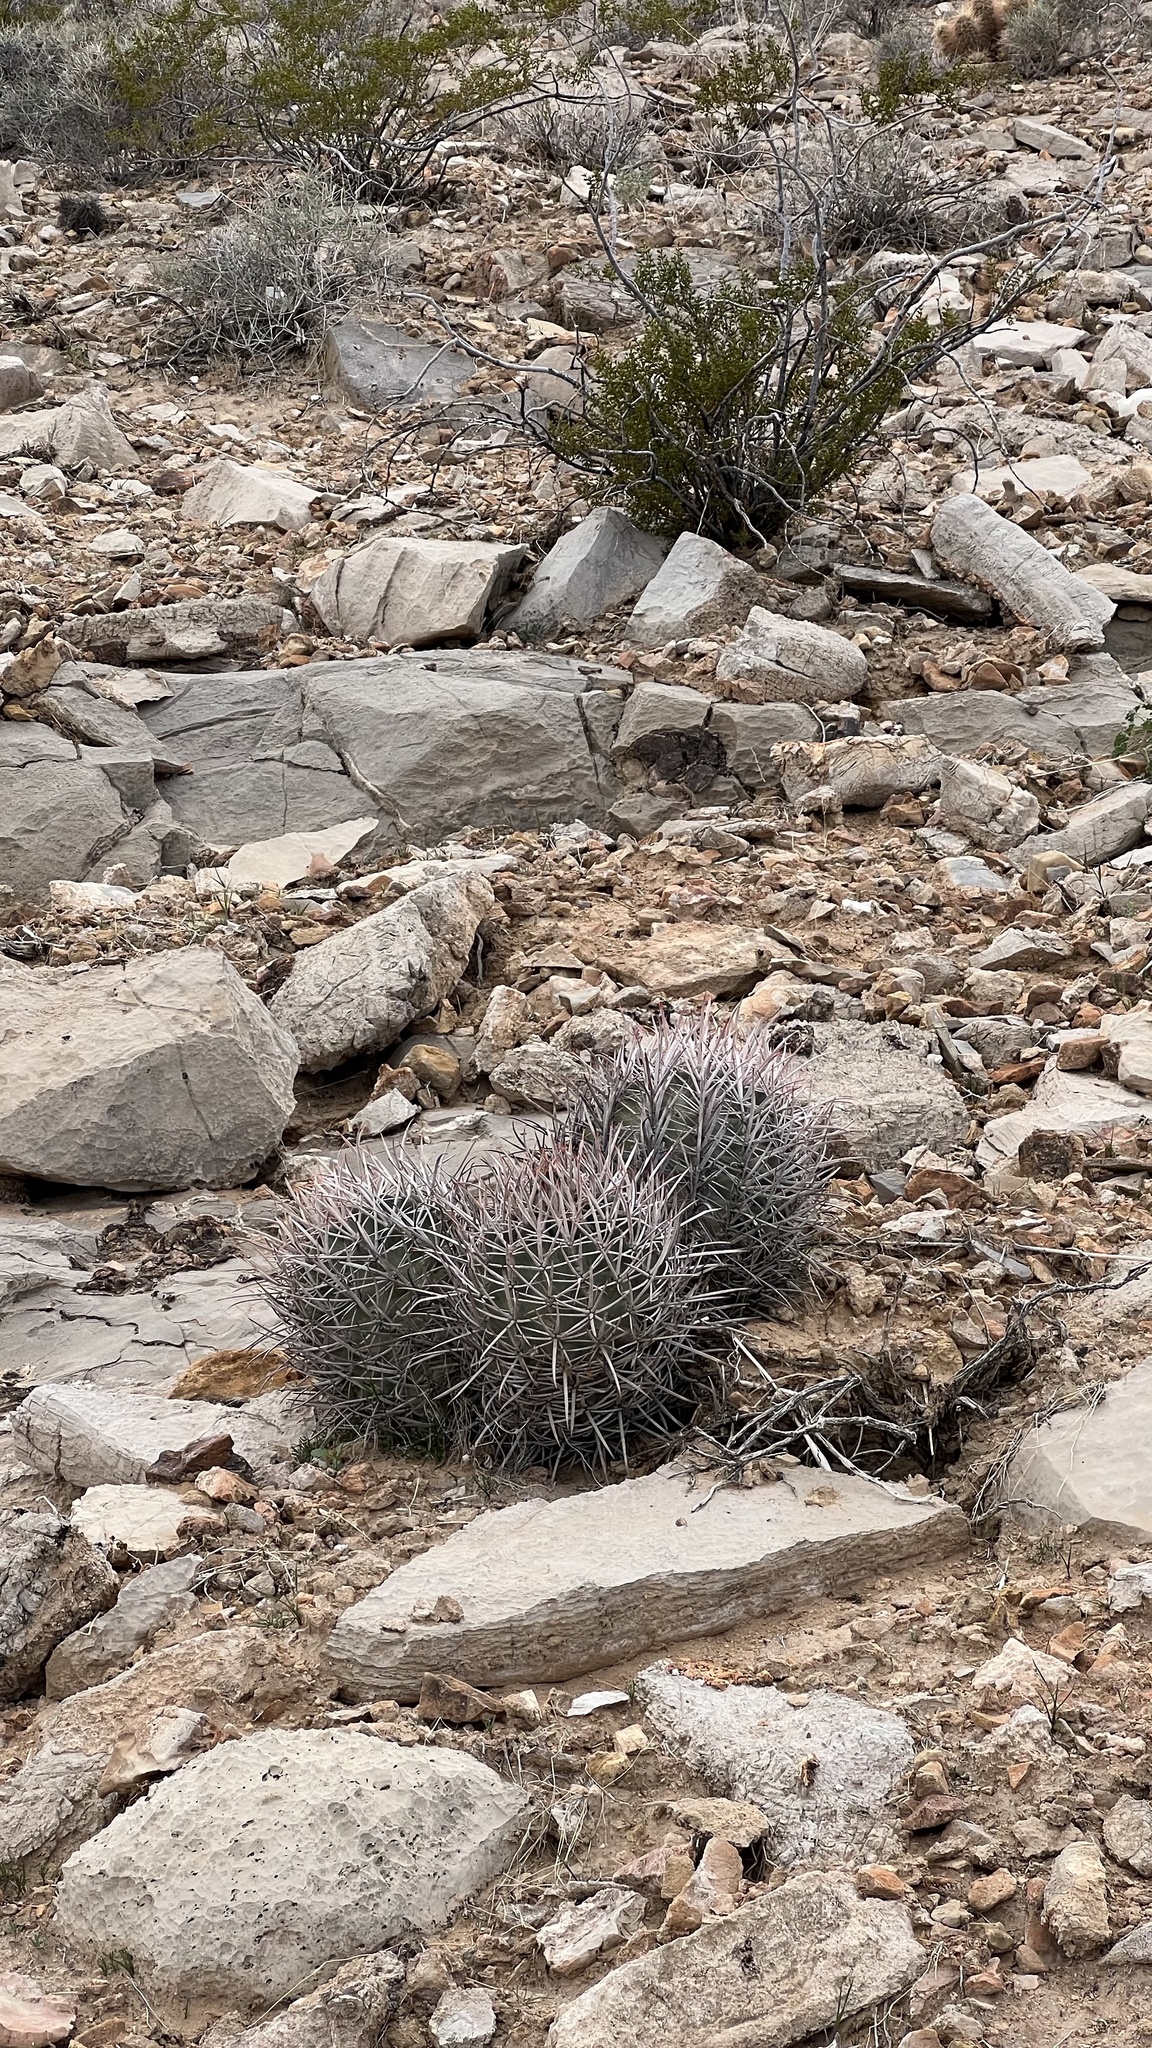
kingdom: Plantae
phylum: Tracheophyta
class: Magnoliopsida
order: Caryophyllales
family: Cactaceae
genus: Echinocactus
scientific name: Echinocactus polycephalus
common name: Cottontop cactus
